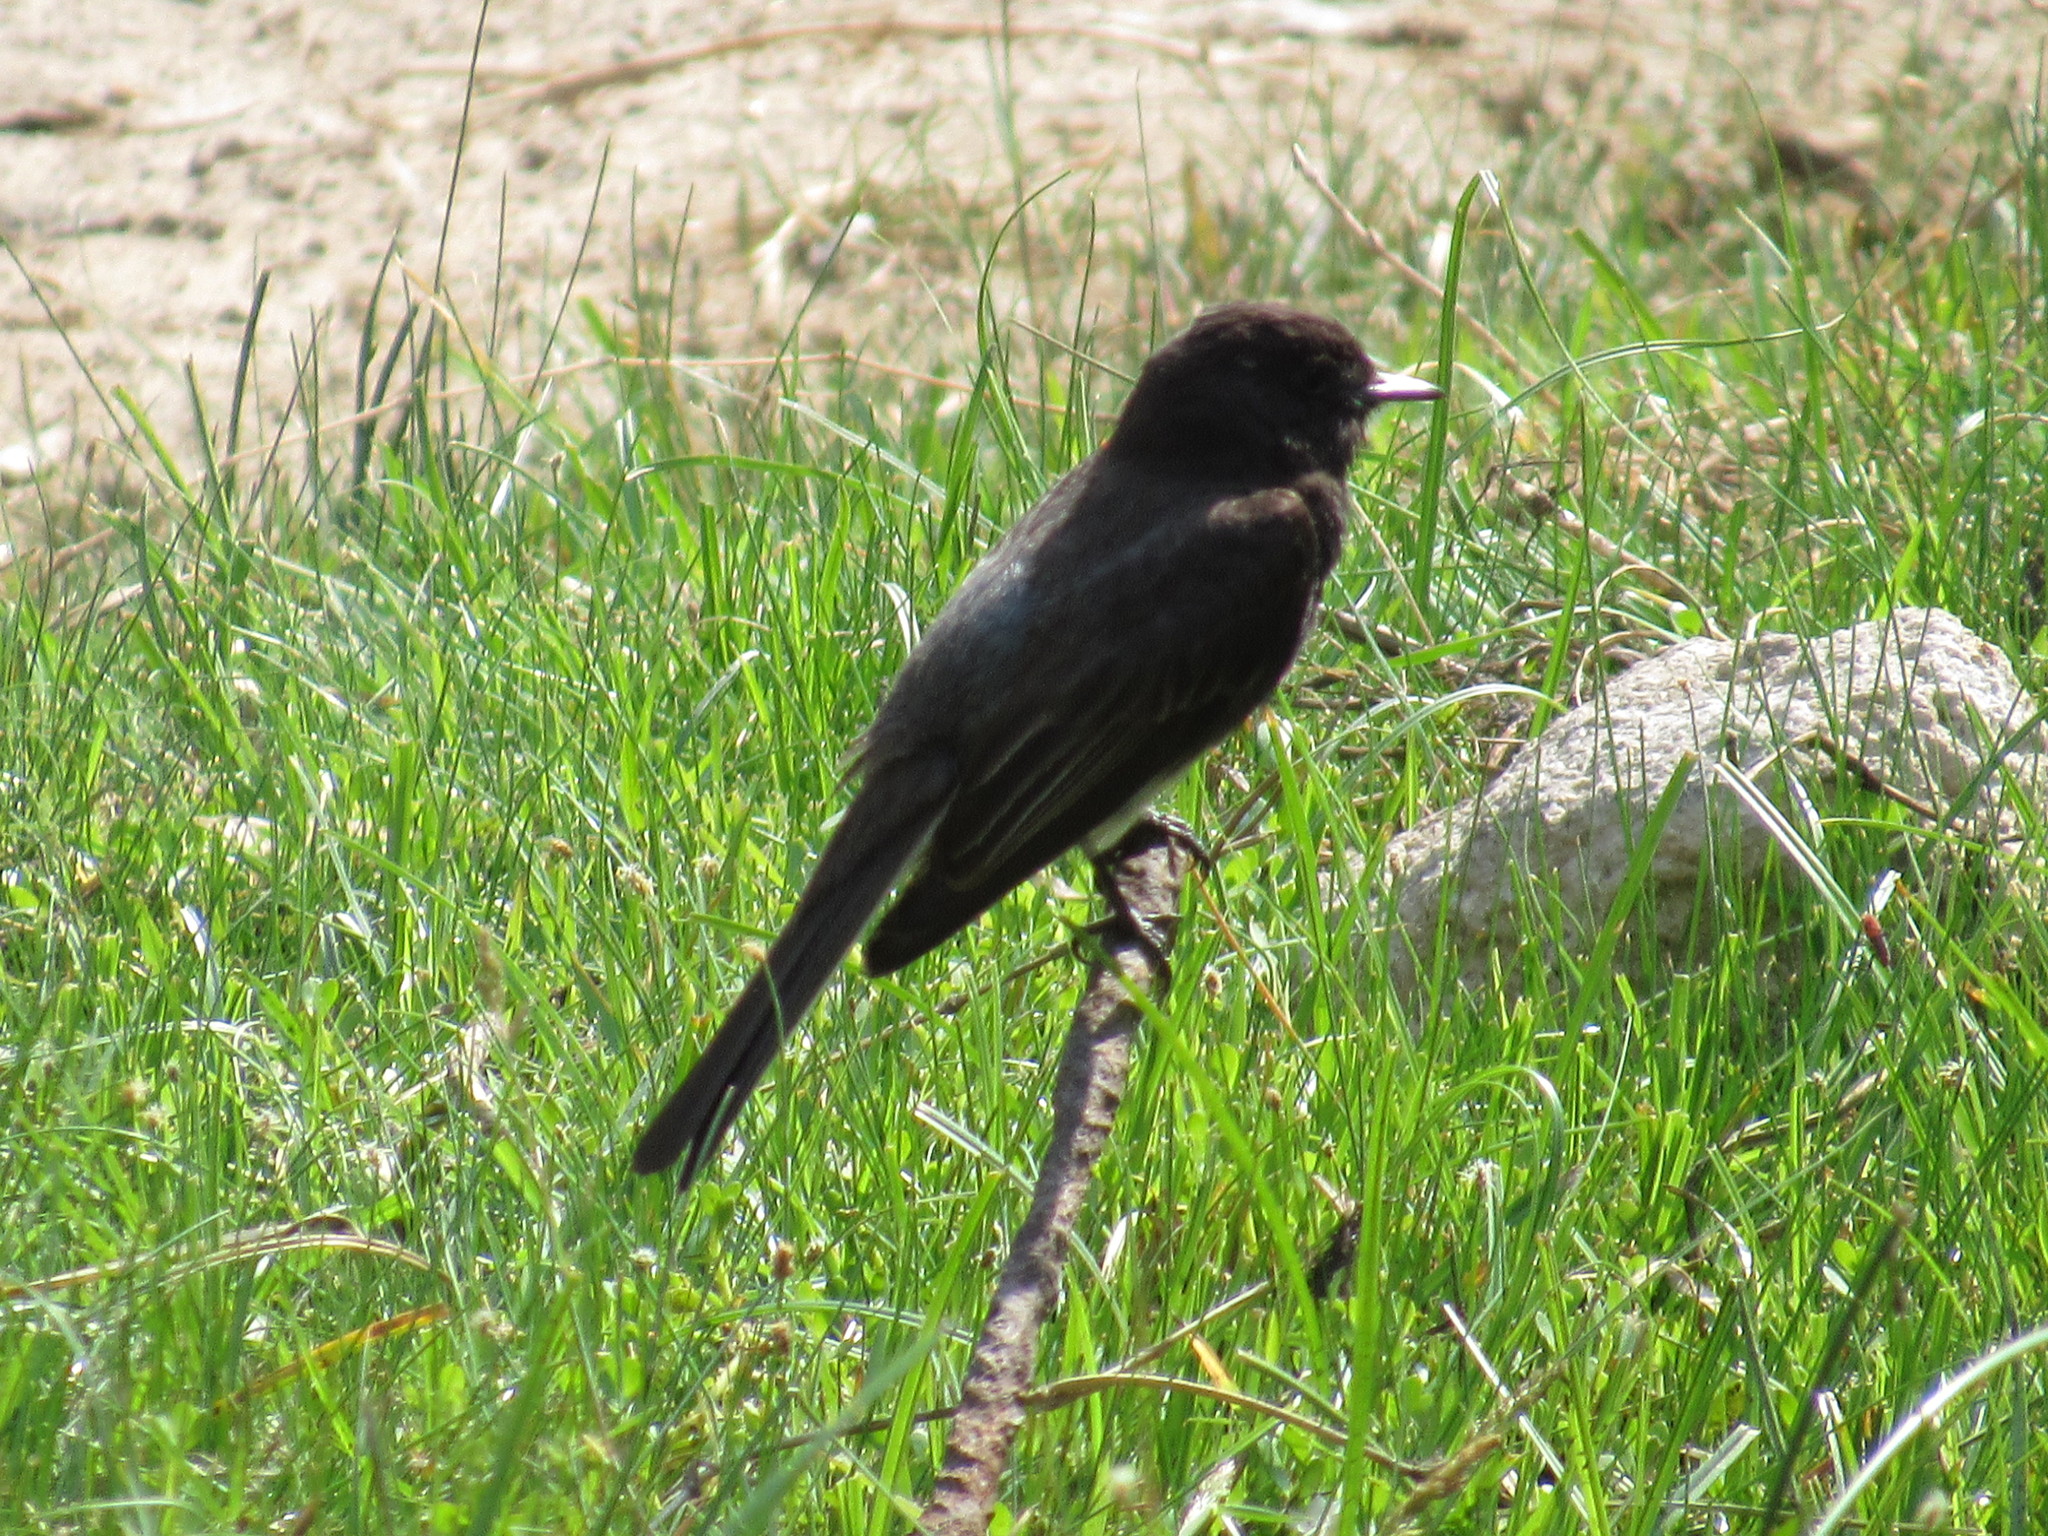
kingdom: Animalia
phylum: Chordata
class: Aves
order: Passeriformes
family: Tyrannidae
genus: Sayornis
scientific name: Sayornis nigricans
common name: Black phoebe
